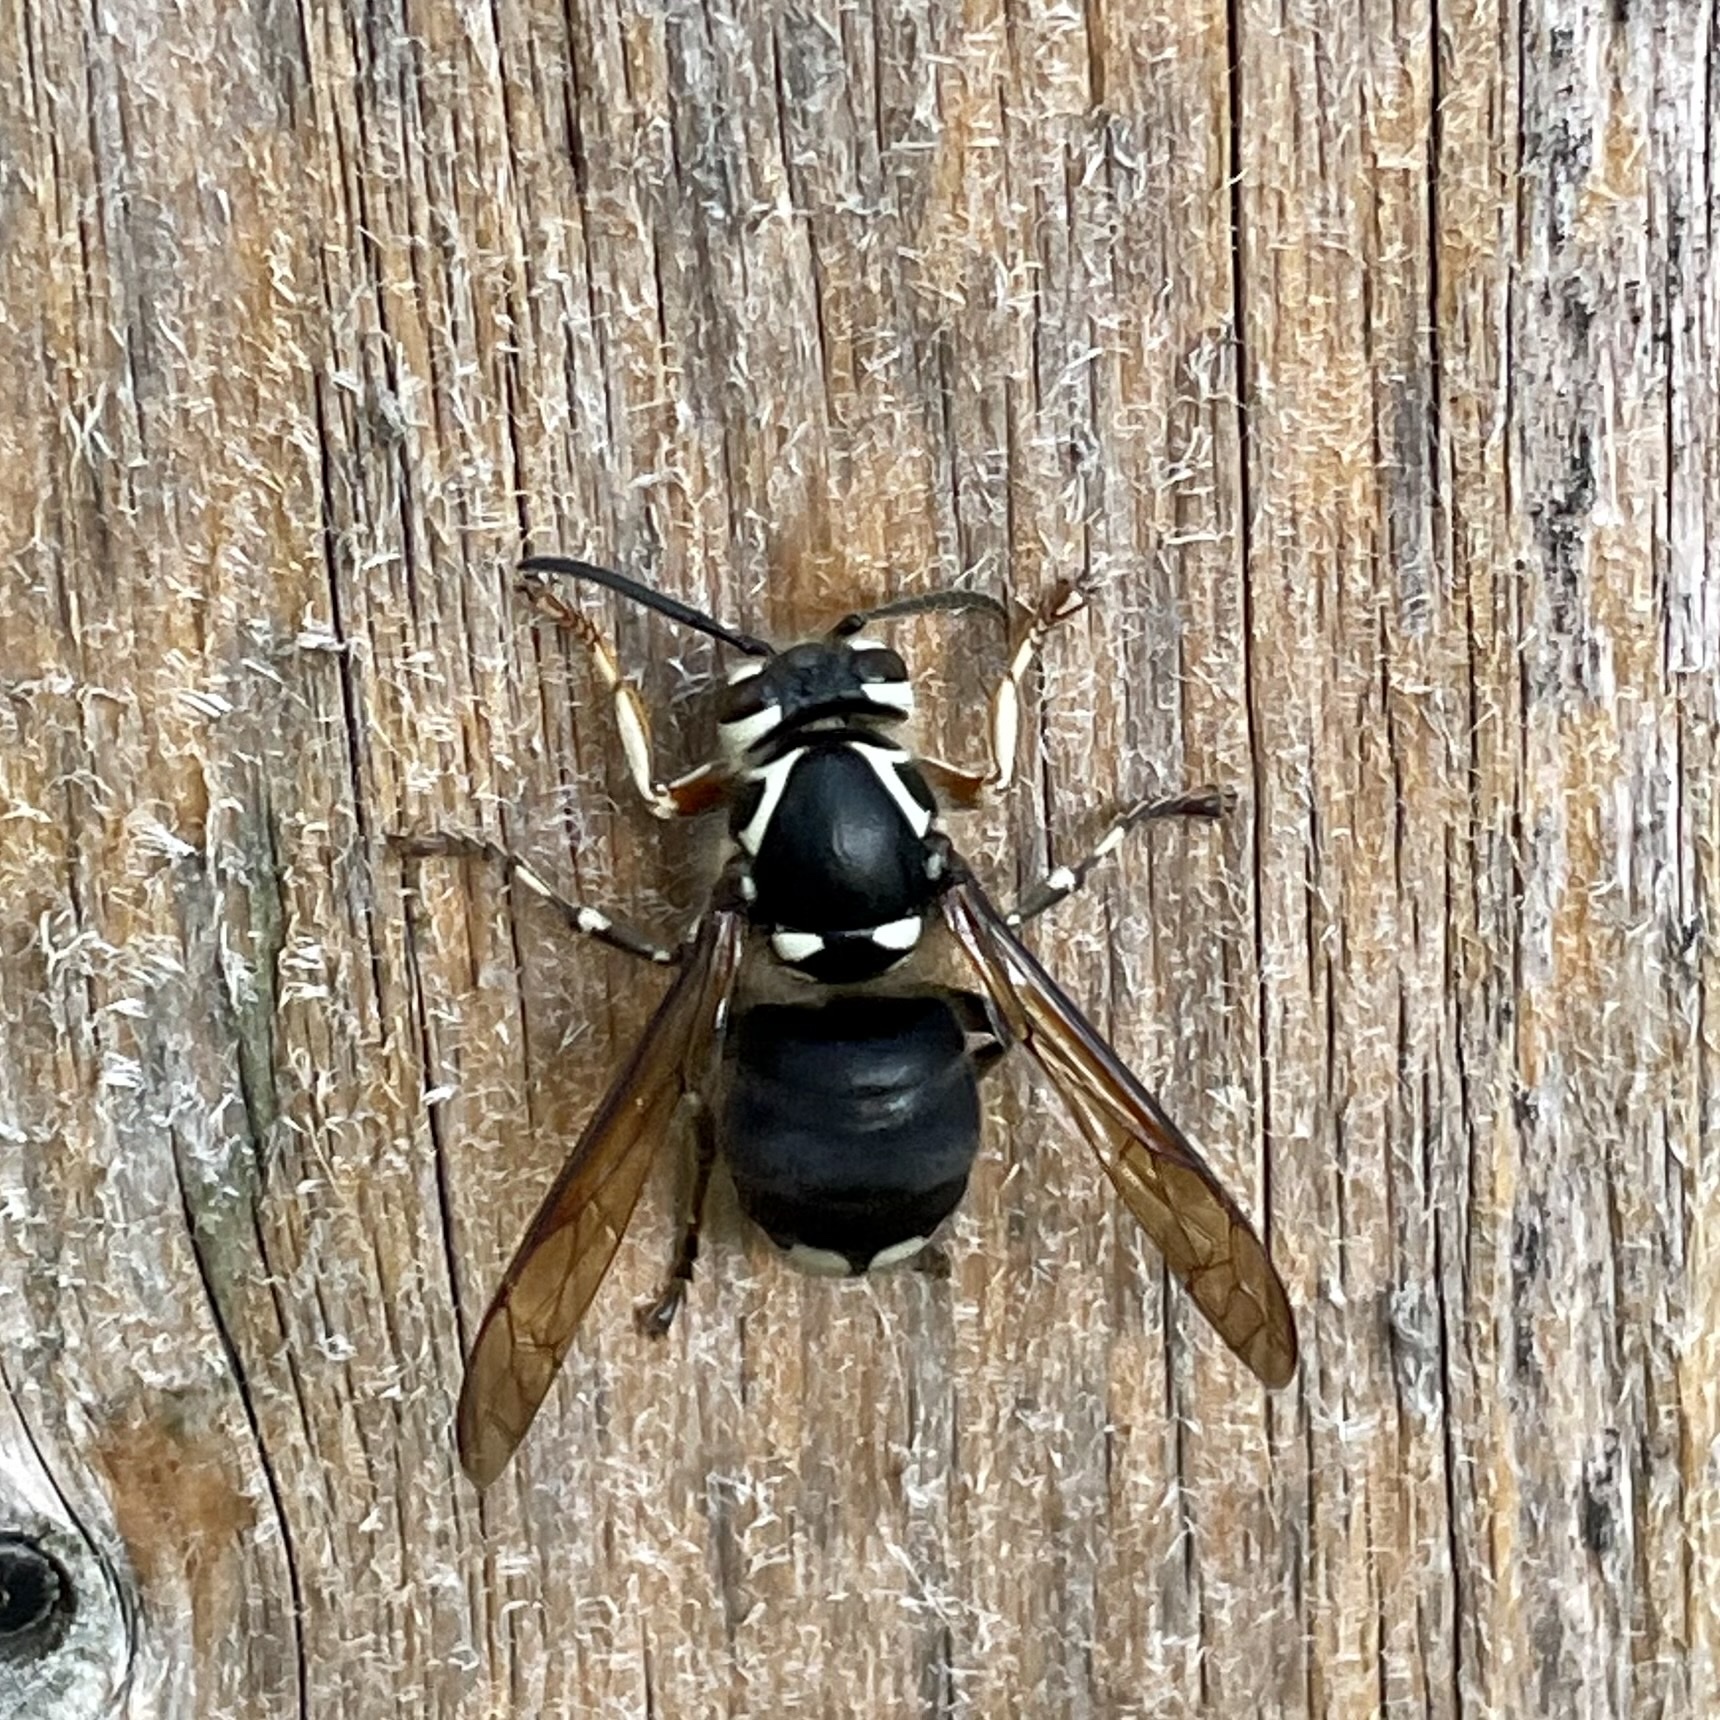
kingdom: Animalia
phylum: Arthropoda
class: Insecta
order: Hymenoptera
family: Vespidae
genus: Dolichovespula
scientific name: Dolichovespula maculata
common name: Bald-faced hornet
